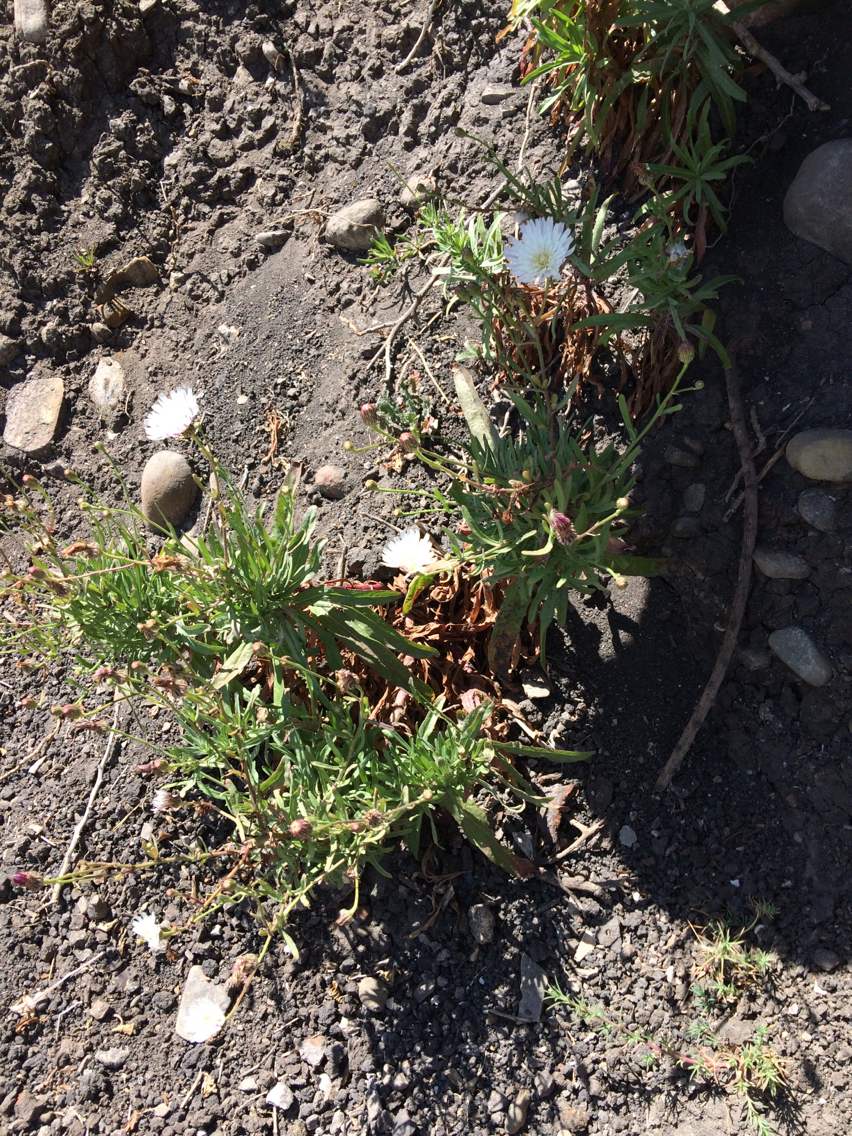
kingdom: Plantae
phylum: Tracheophyta
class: Magnoliopsida
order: Asterales
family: Asteraceae
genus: Malacothrix
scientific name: Malacothrix saxatilis
